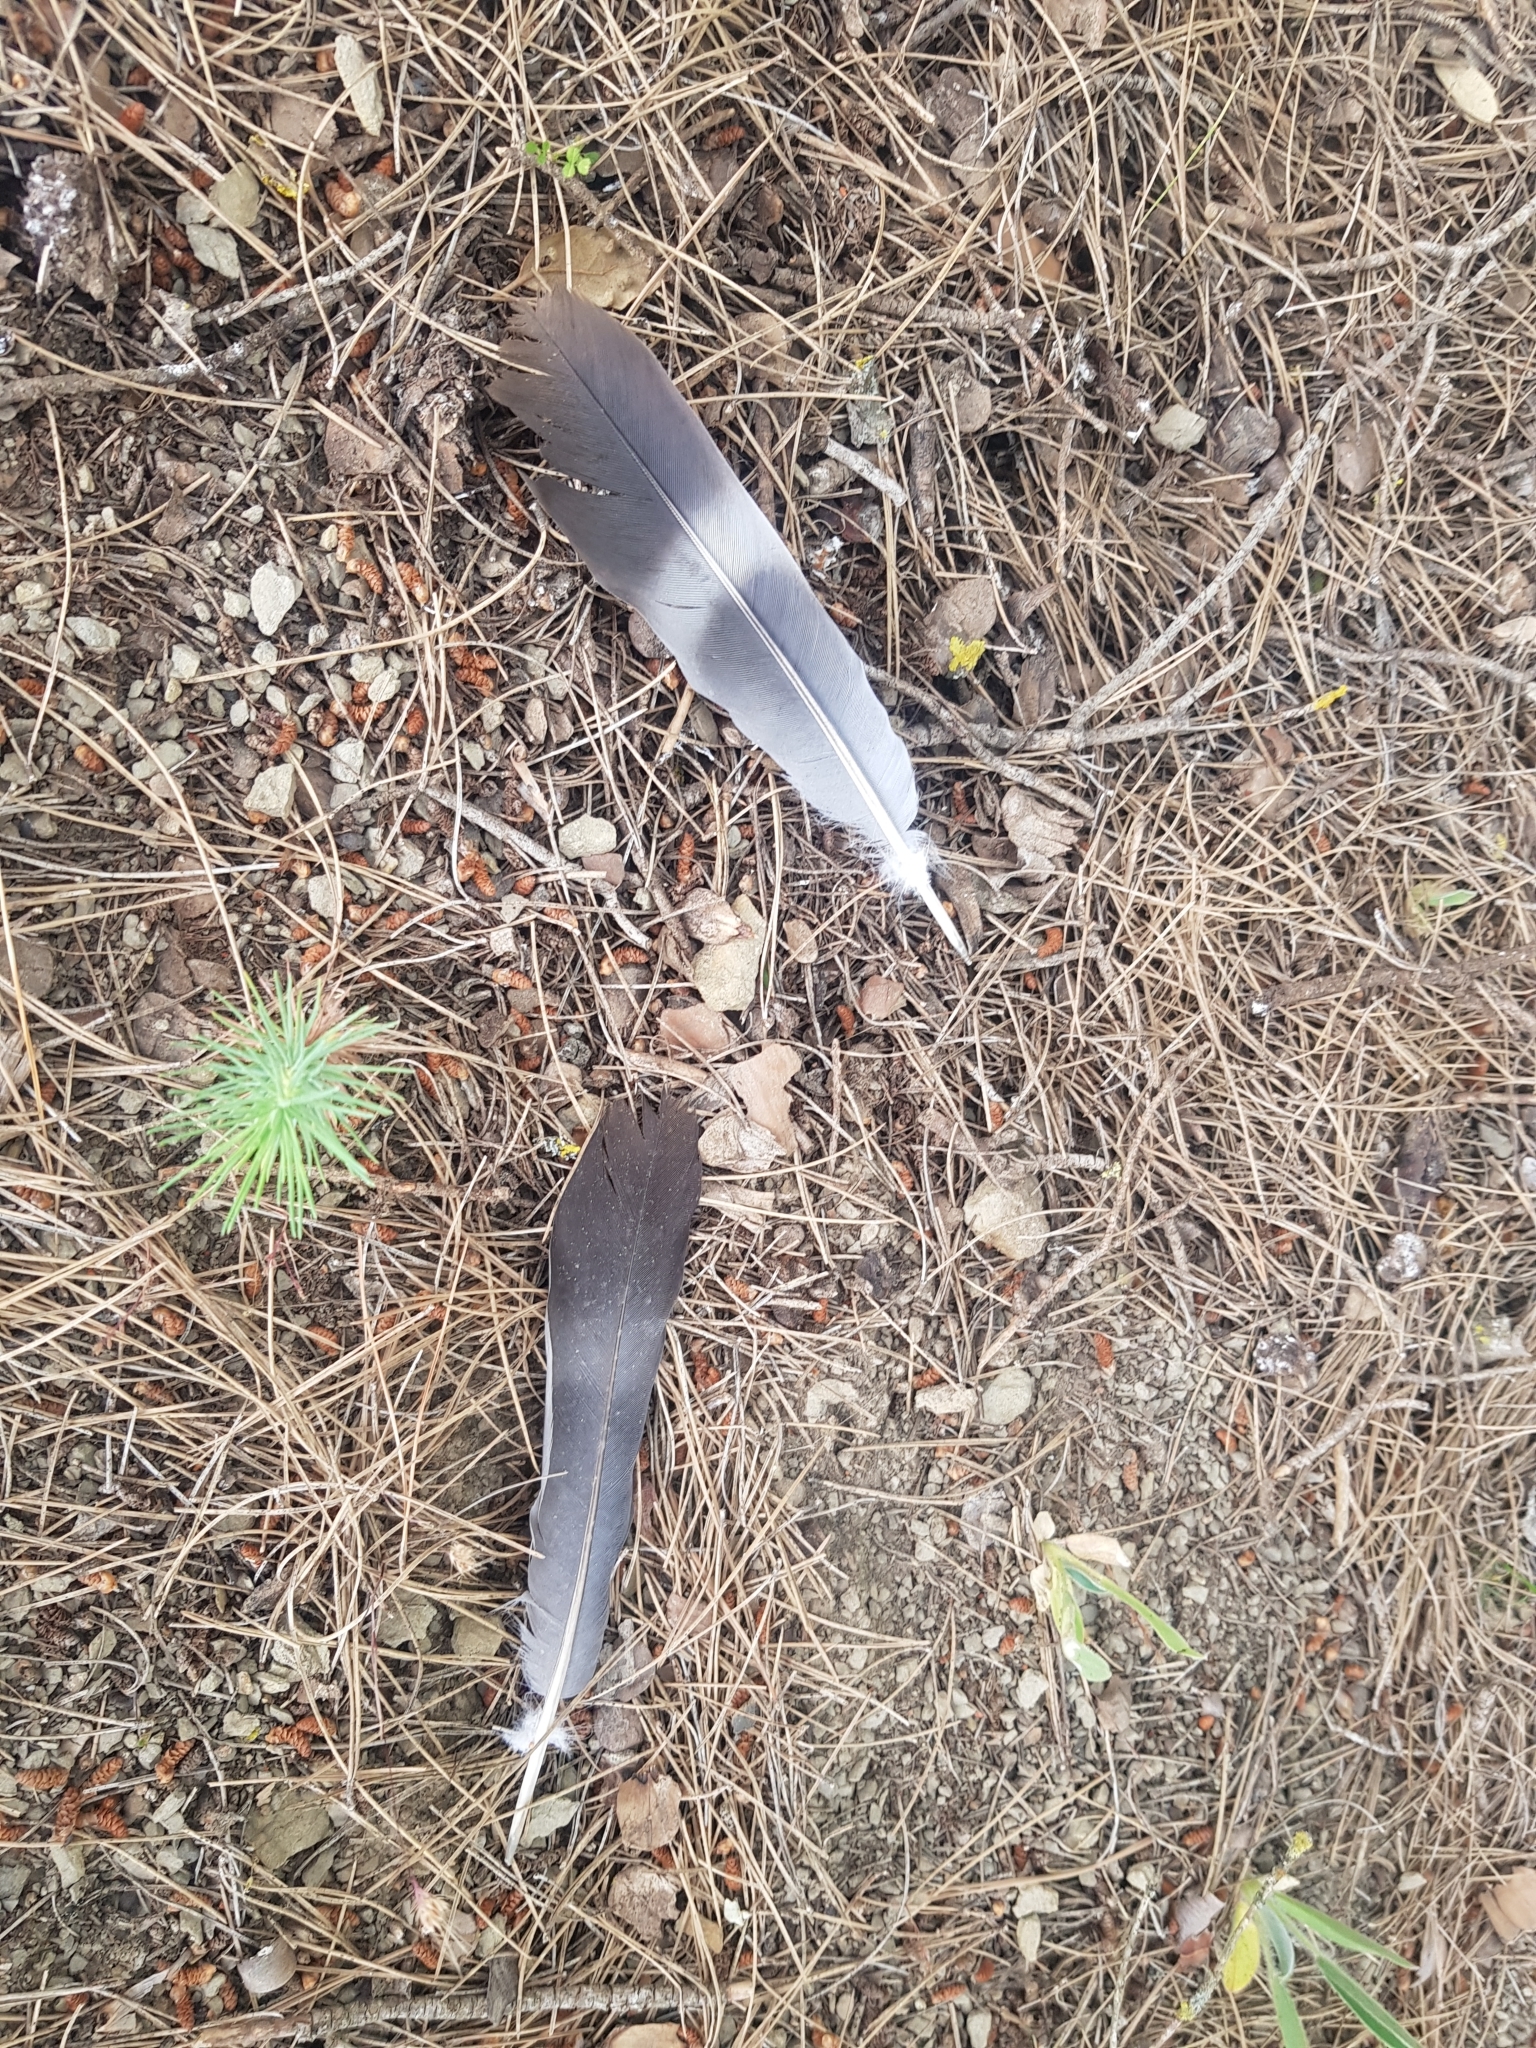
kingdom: Animalia
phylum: Chordata
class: Aves
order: Columbiformes
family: Columbidae
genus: Columba
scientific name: Columba palumbus
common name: Common wood pigeon
